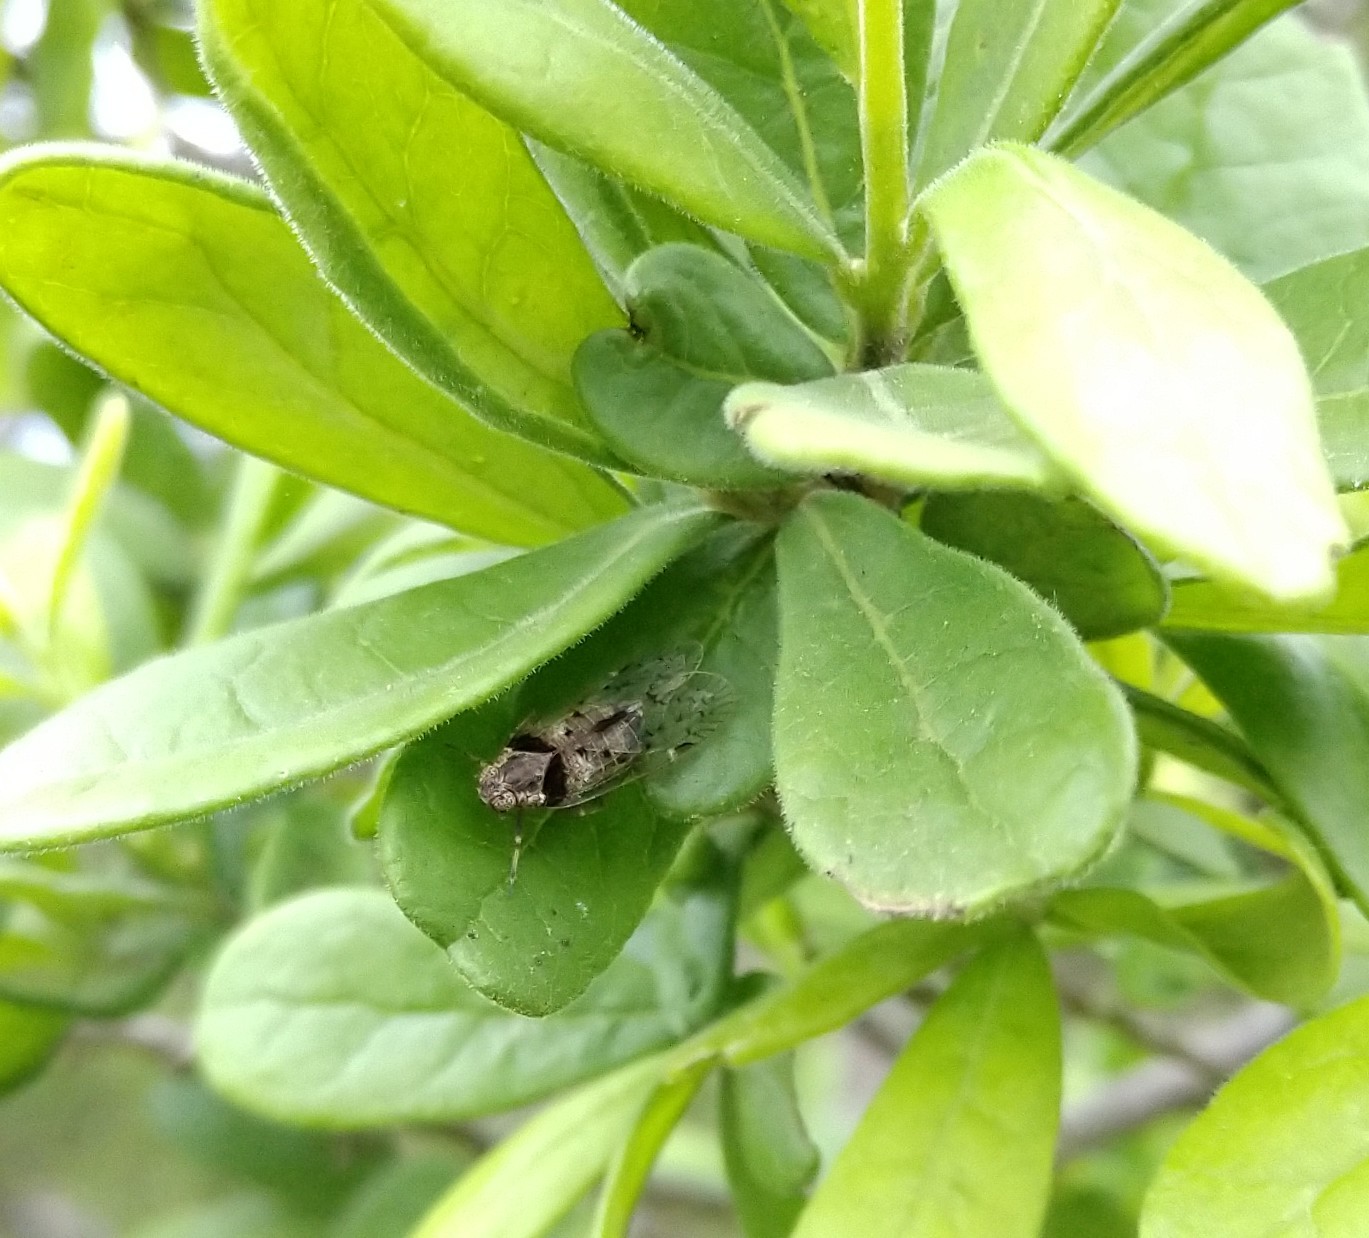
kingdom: Animalia
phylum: Arthropoda
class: Insecta
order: Hemiptera
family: Cixiidae
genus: Melanoliarus
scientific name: Melanoliarus aridus
